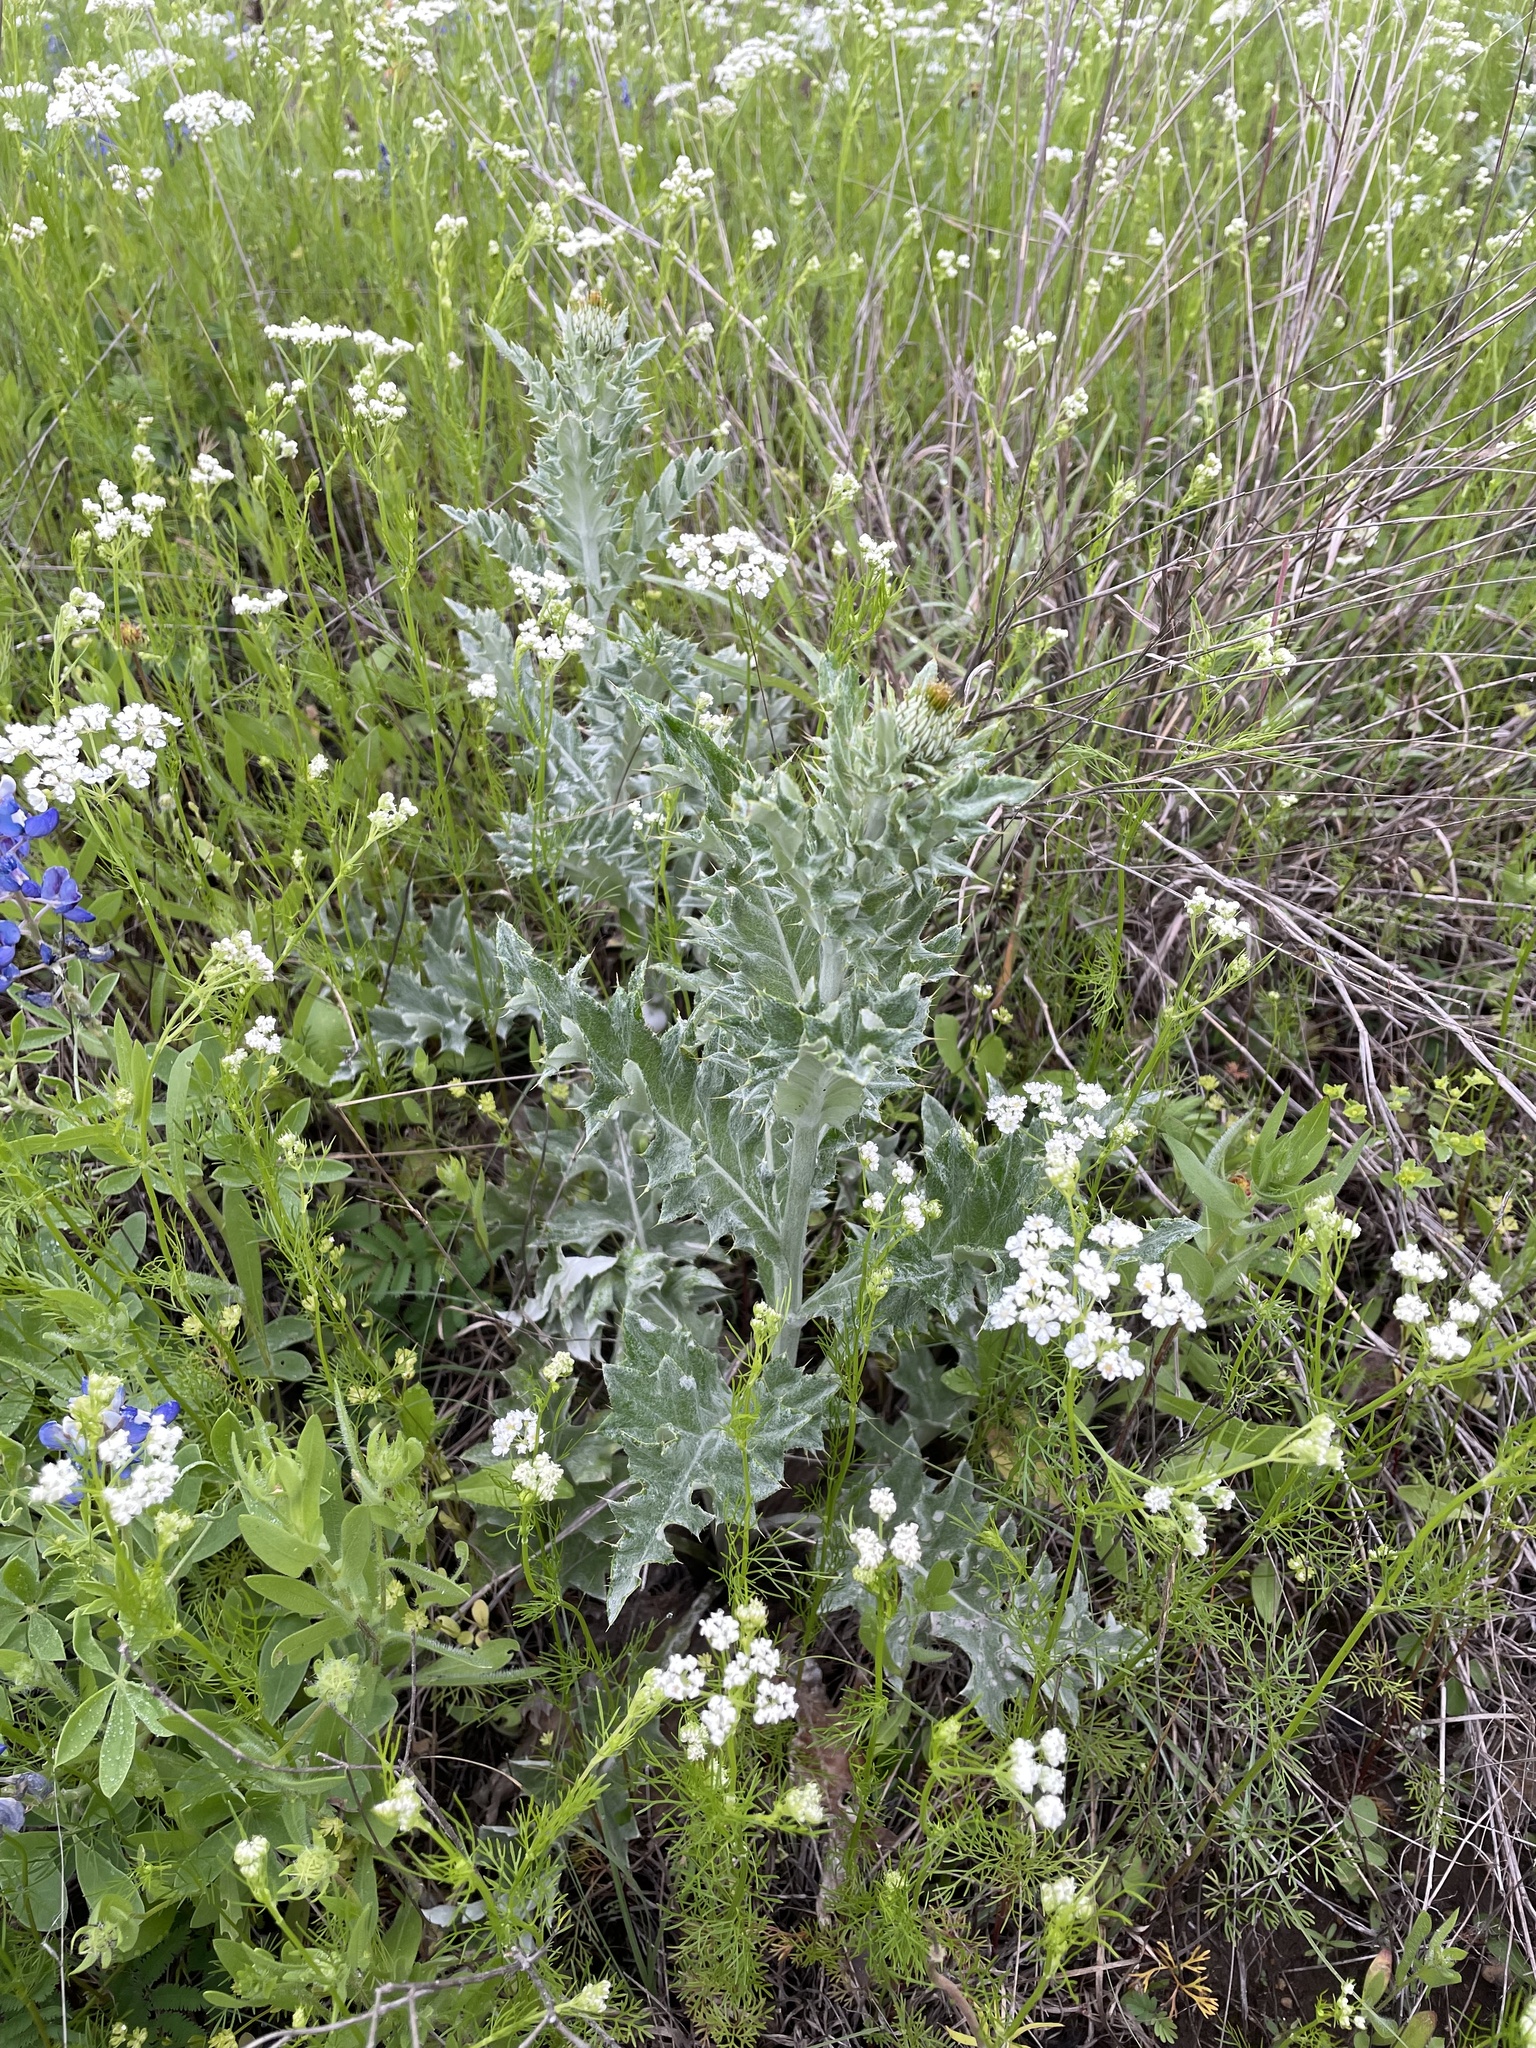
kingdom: Plantae
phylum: Tracheophyta
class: Magnoliopsida
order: Asterales
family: Asteraceae
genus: Cirsium
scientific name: Cirsium undulatum
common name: Pasture thistle
